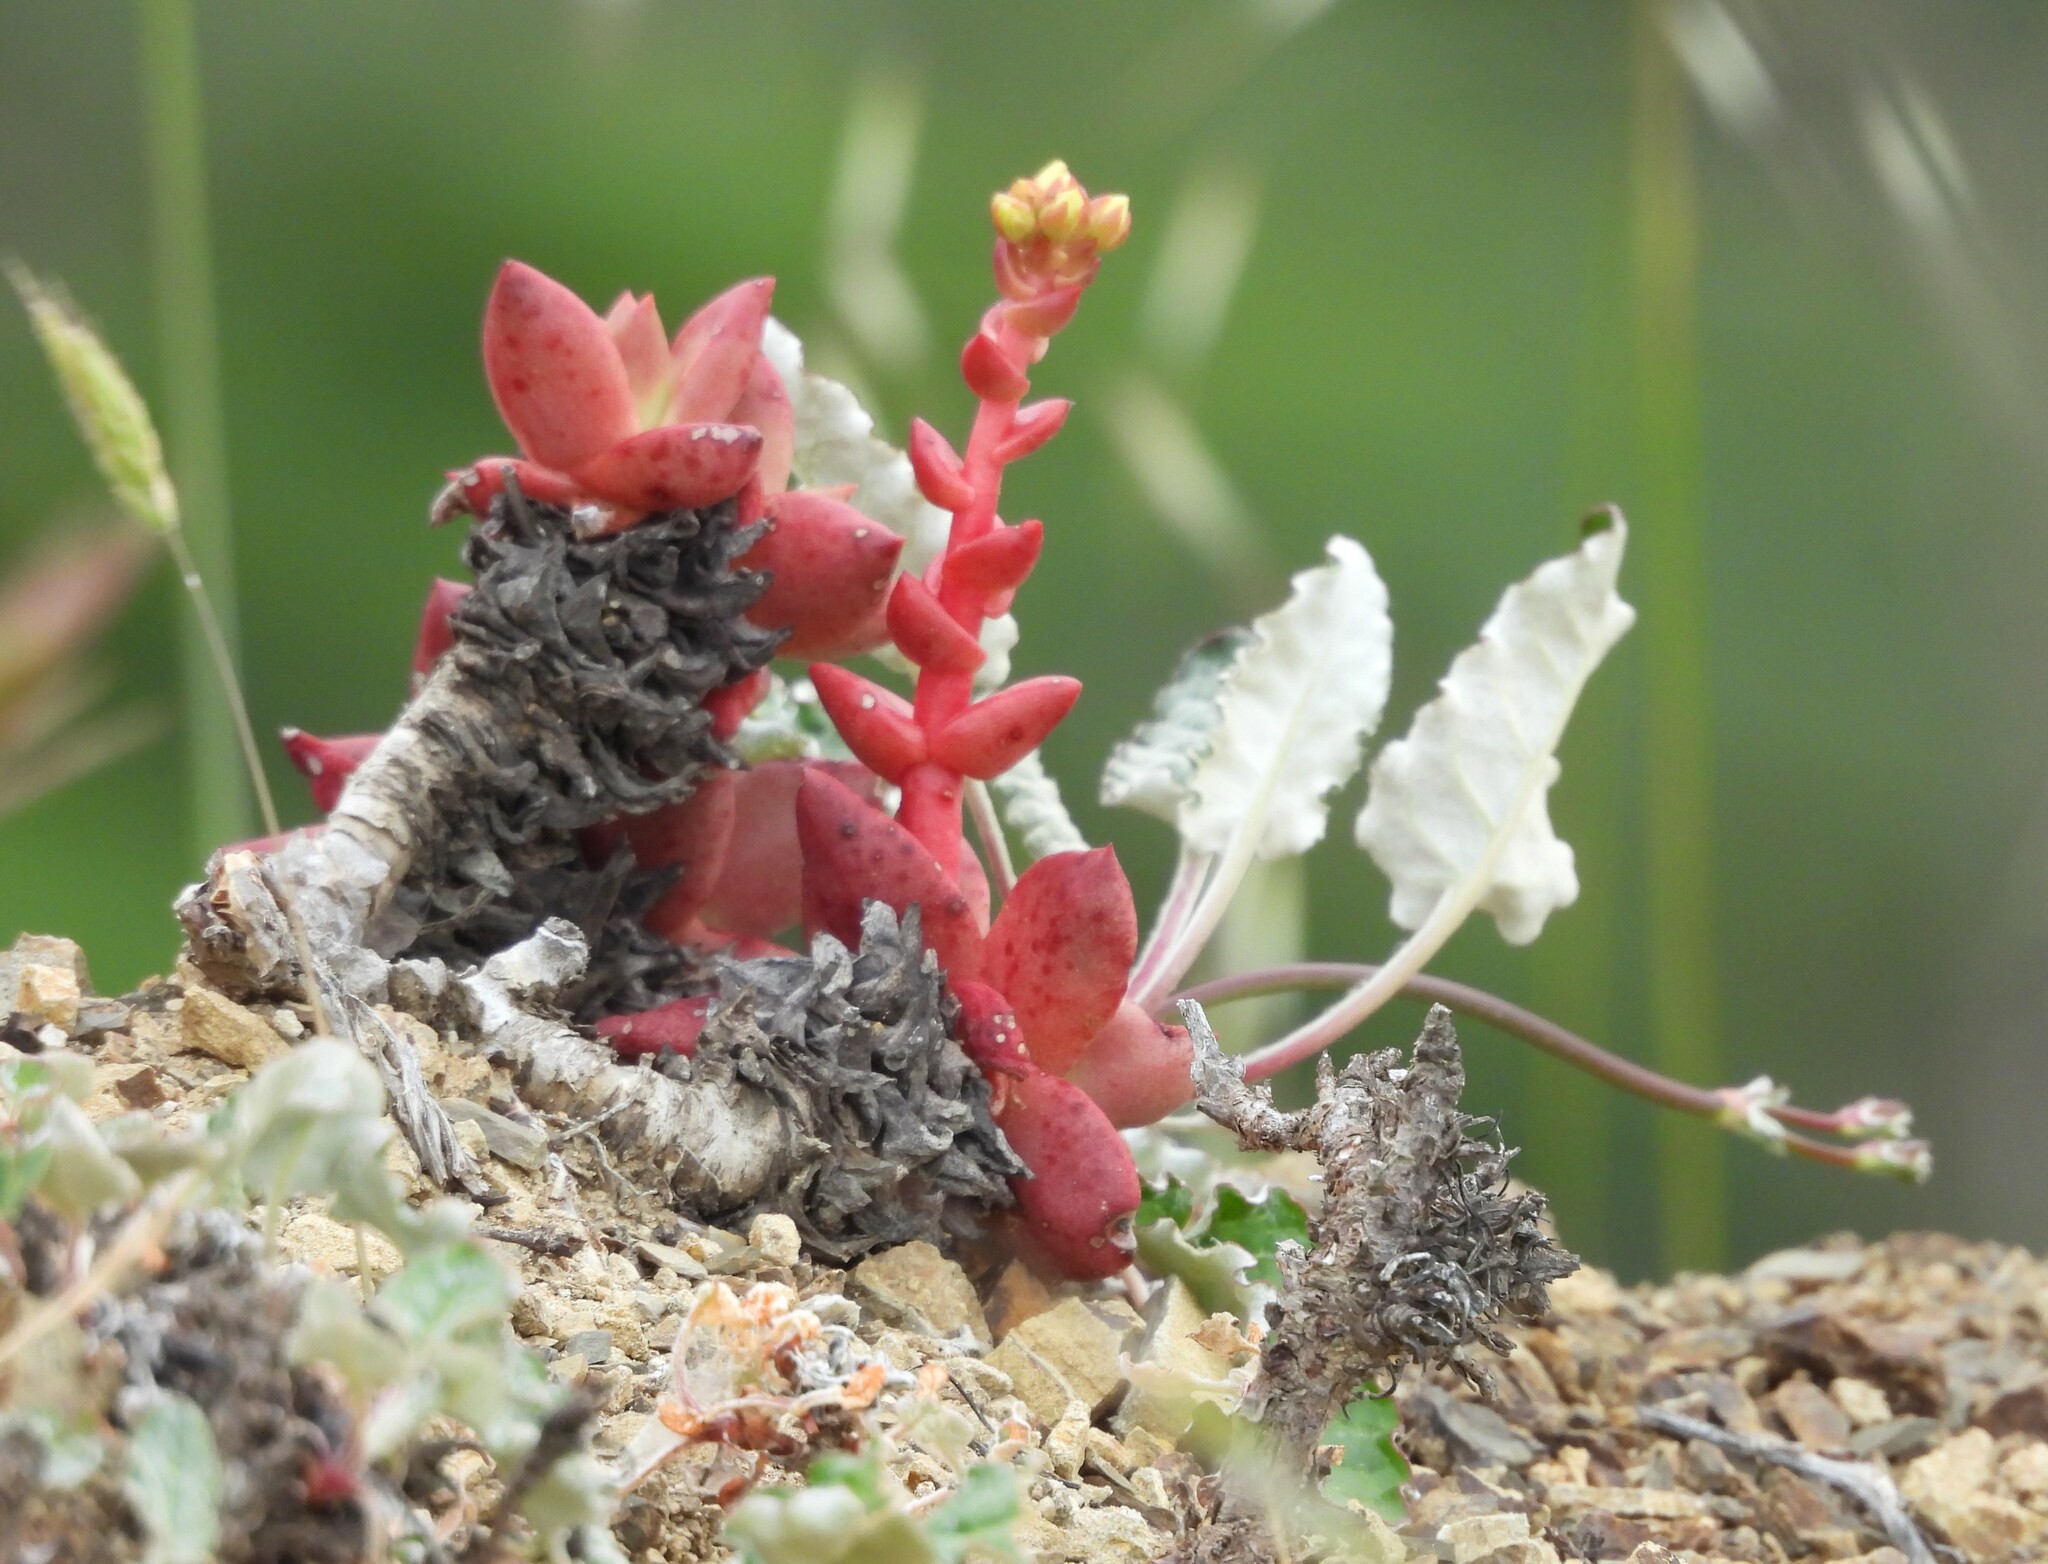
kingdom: Plantae
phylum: Tracheophyta
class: Magnoliopsida
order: Saxifragales
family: Crassulaceae
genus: Dudleya
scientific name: Dudleya farinosa
